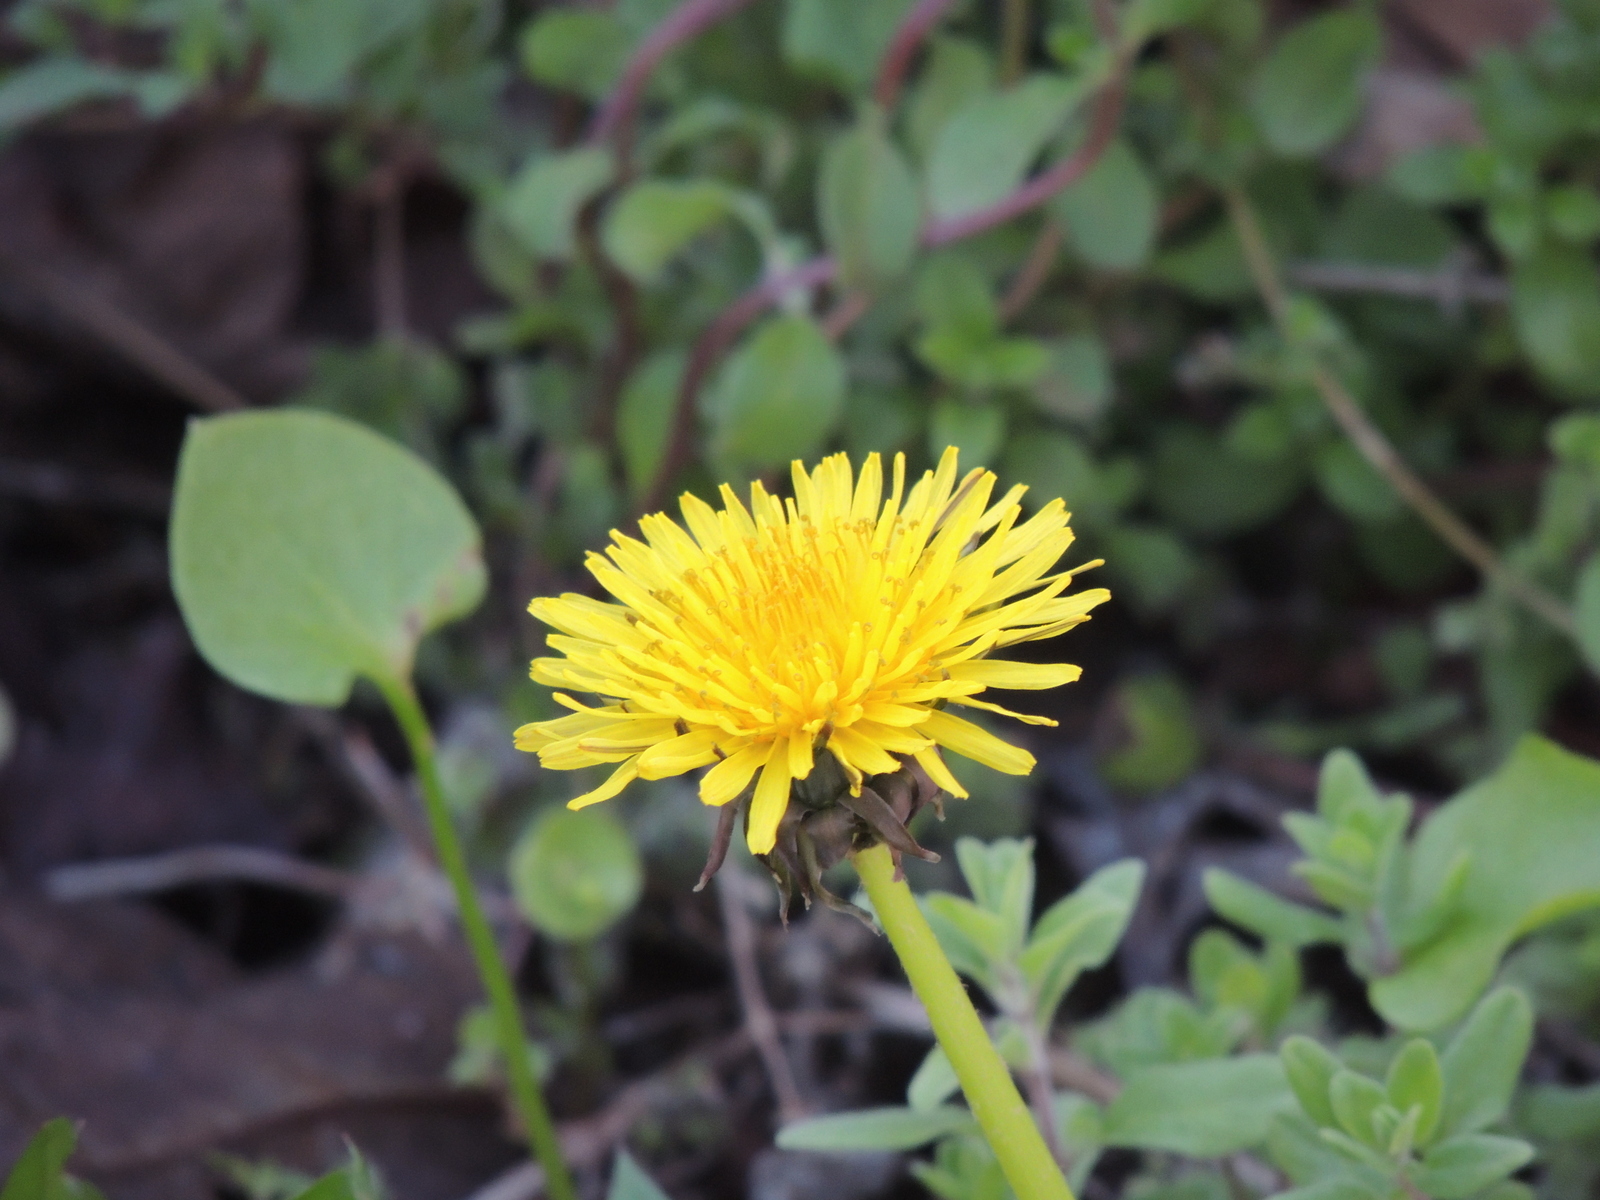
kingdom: Plantae
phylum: Tracheophyta
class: Magnoliopsida
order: Asterales
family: Asteraceae
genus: Taraxacum
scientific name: Taraxacum officinale
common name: Common dandelion
